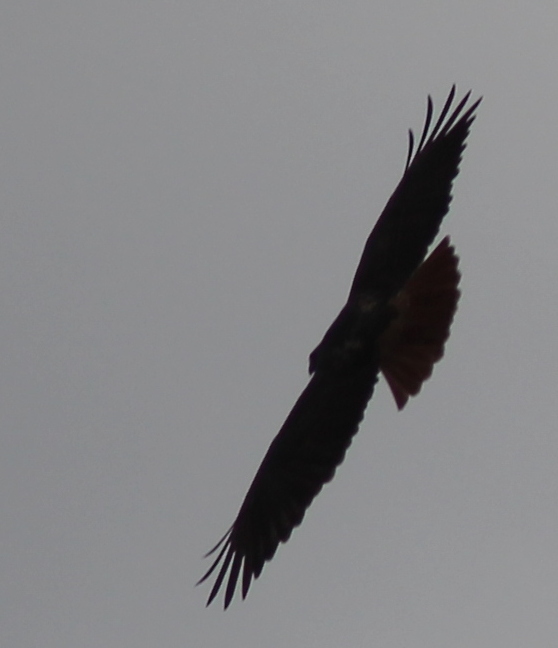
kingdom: Animalia
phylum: Chordata
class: Aves
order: Accipitriformes
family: Accipitridae
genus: Buteo
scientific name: Buteo jamaicensis
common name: Red-tailed hawk
